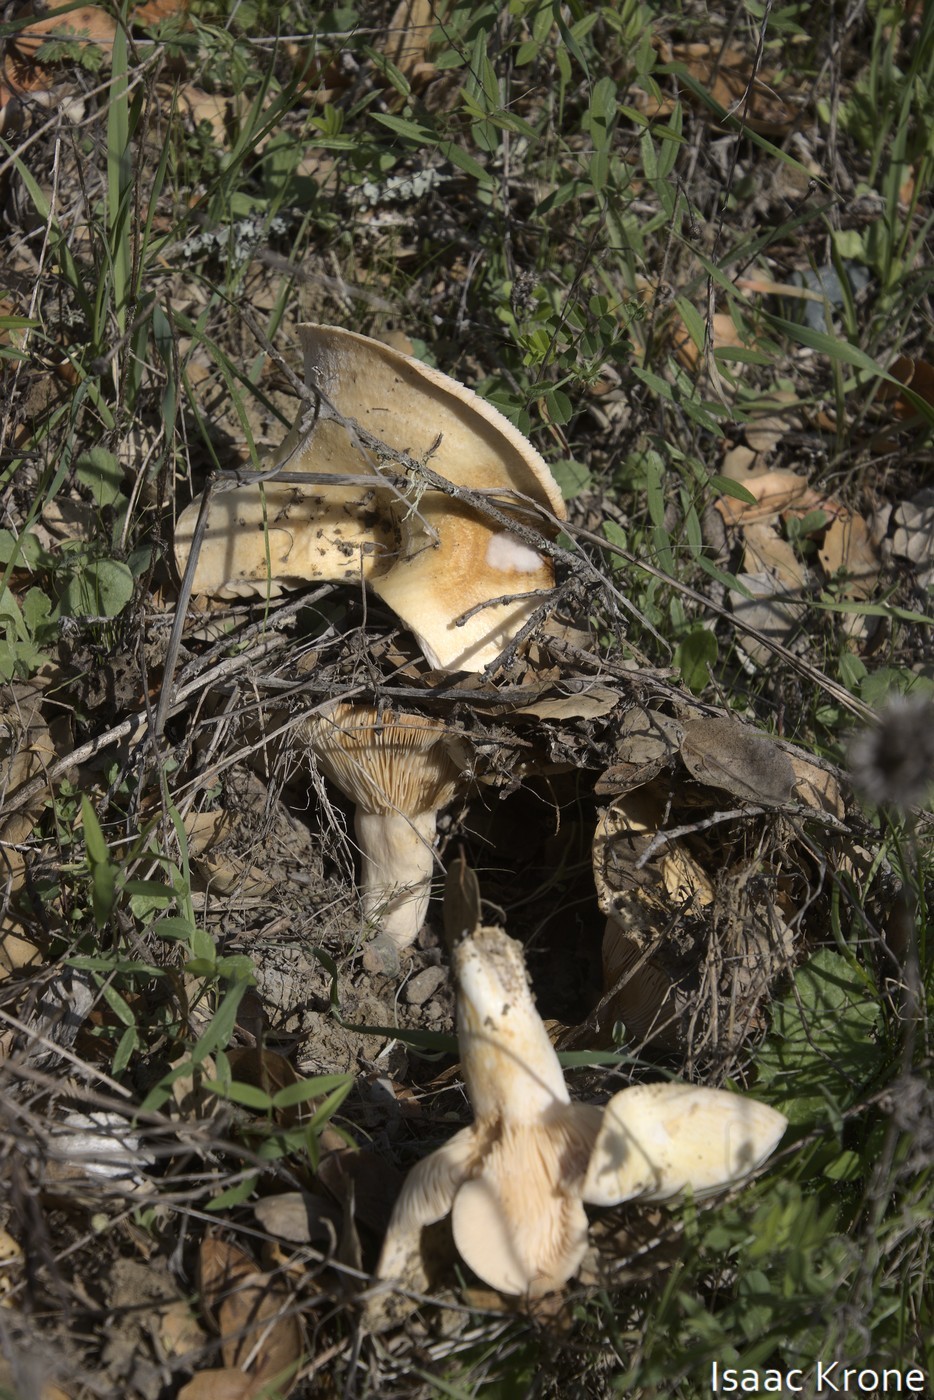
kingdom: Fungi
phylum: Basidiomycota
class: Agaricomycetes
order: Russulales
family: Russulaceae
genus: Lactarius
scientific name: Lactarius alnicola
